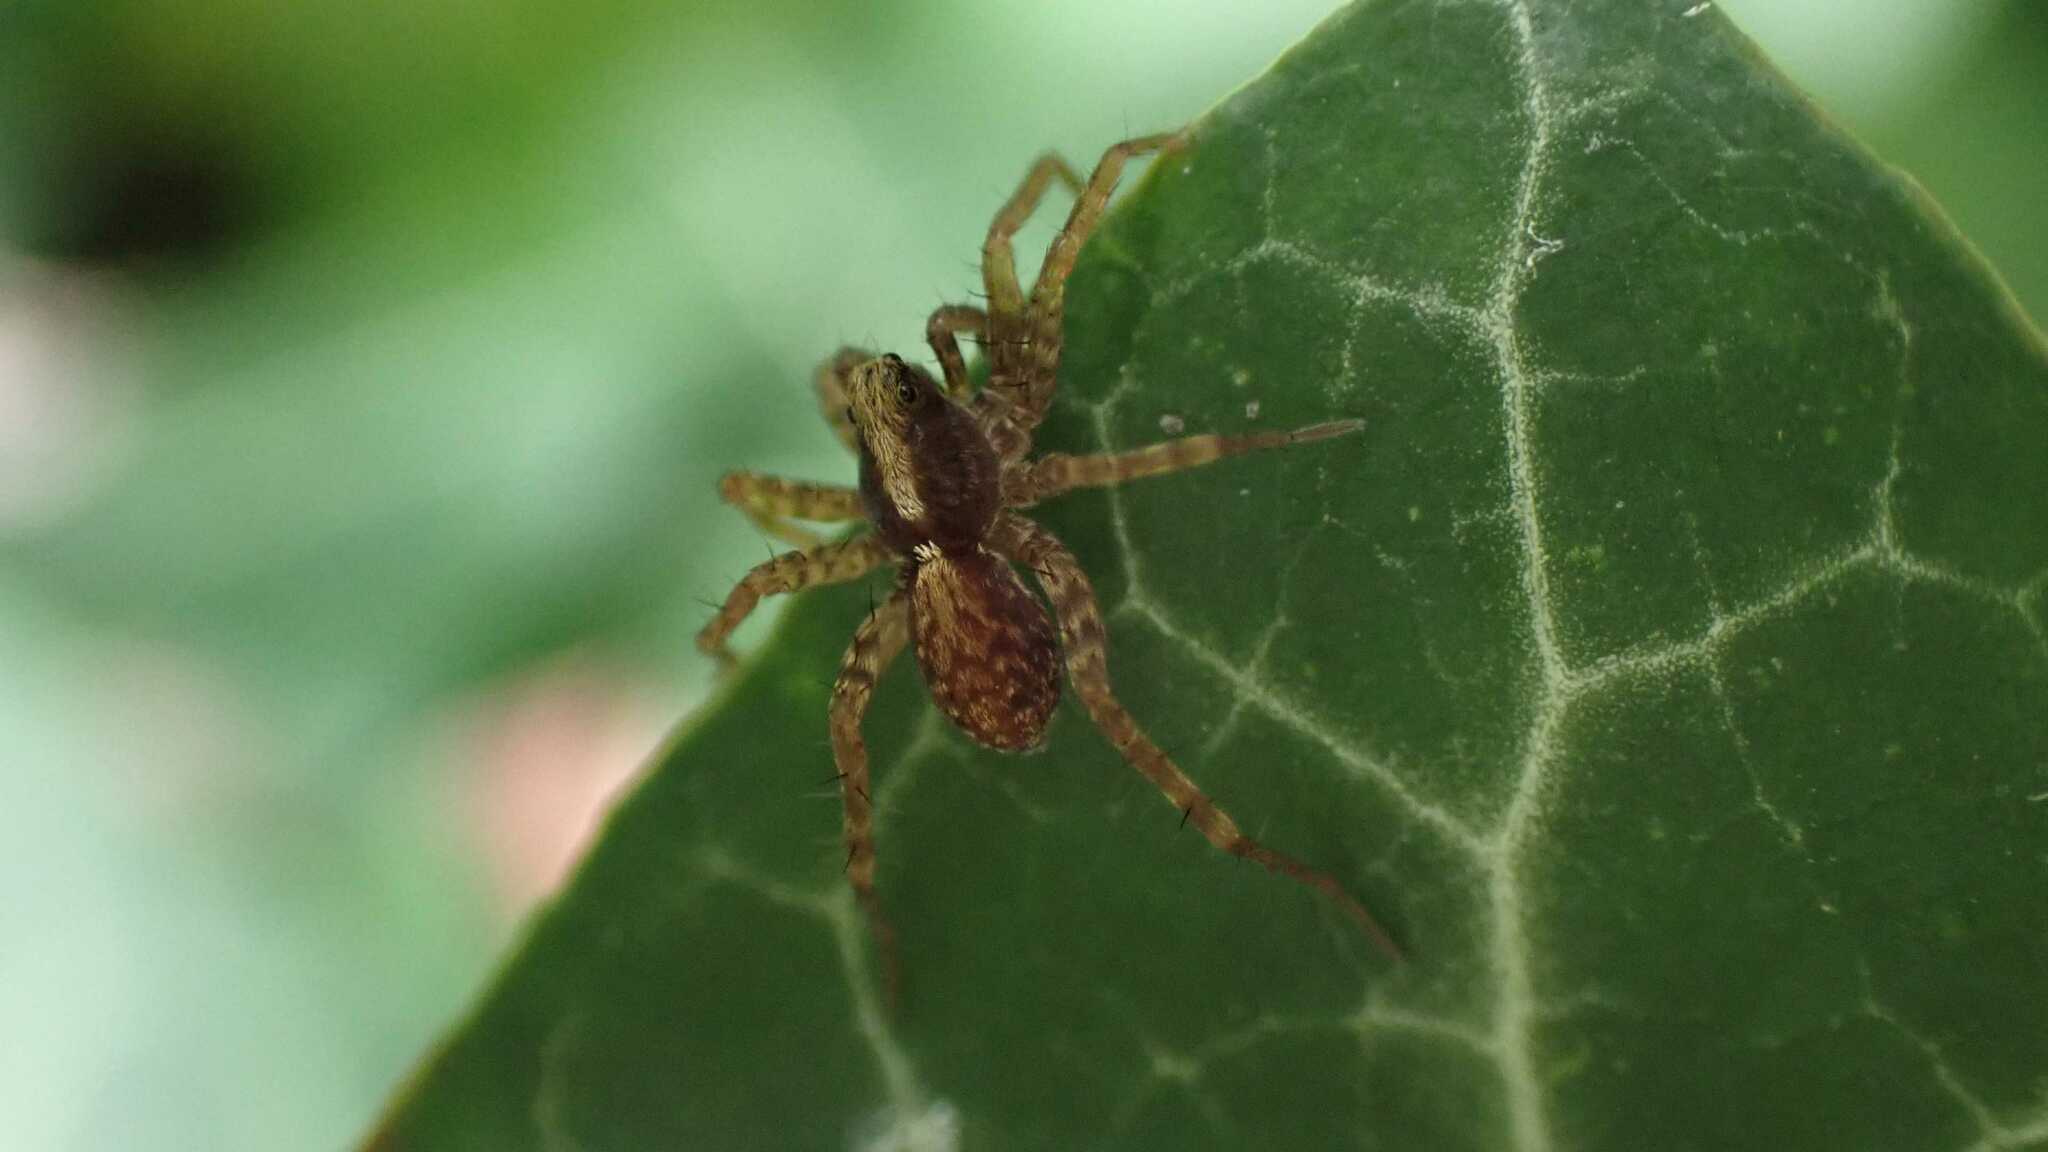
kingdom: Animalia
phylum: Arthropoda
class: Arachnida
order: Araneae
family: Lycosidae
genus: Pardosa
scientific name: Pardosa
